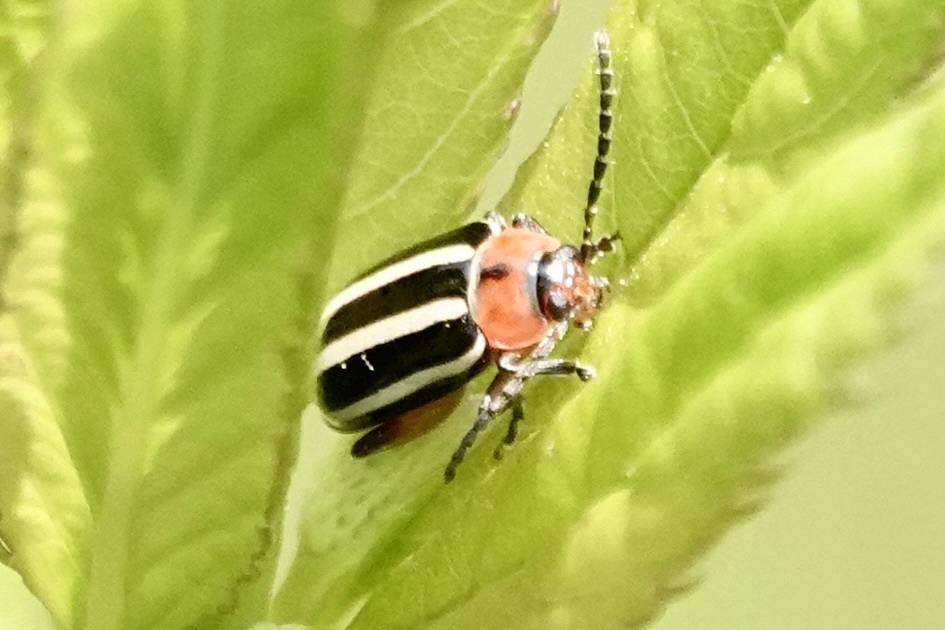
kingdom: Animalia
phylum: Arthropoda
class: Insecta
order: Coleoptera
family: Chrysomelidae
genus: Disonycha
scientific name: Disonycha glabrata
